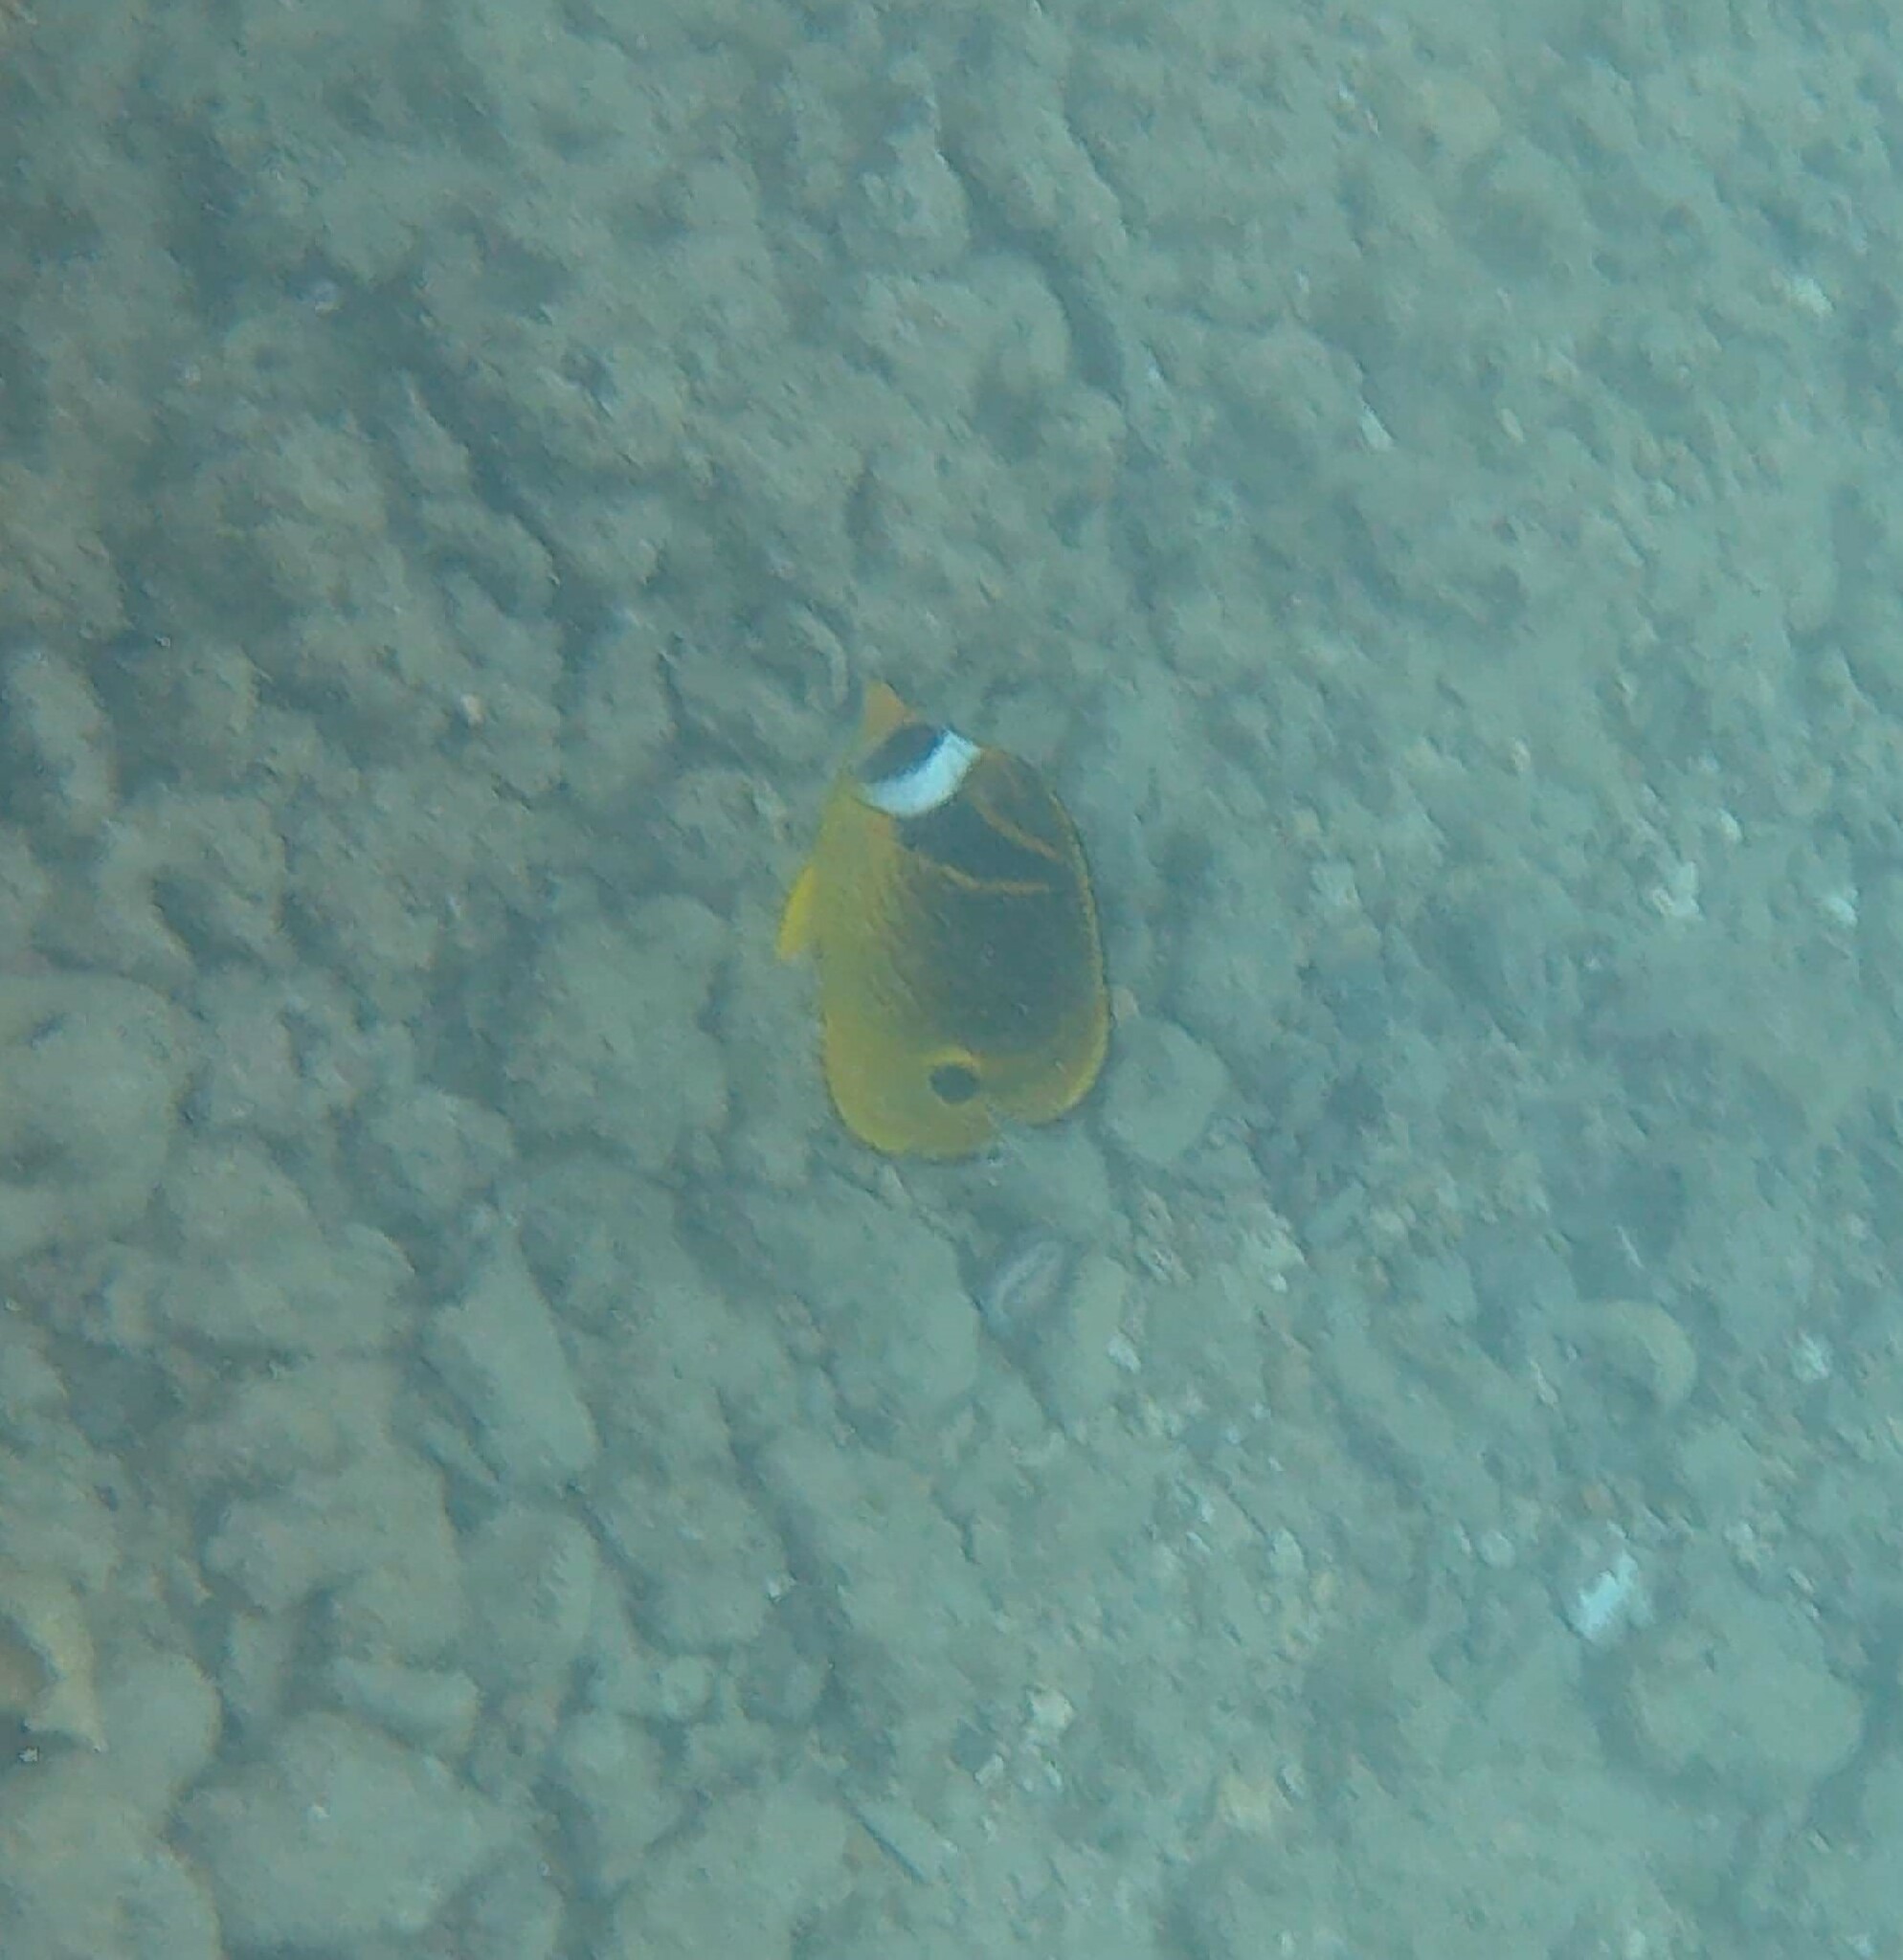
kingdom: Animalia
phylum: Chordata
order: Perciformes
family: Chaetodontidae
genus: Chaetodon
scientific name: Chaetodon lunula
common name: Raccoon butterflyfish
